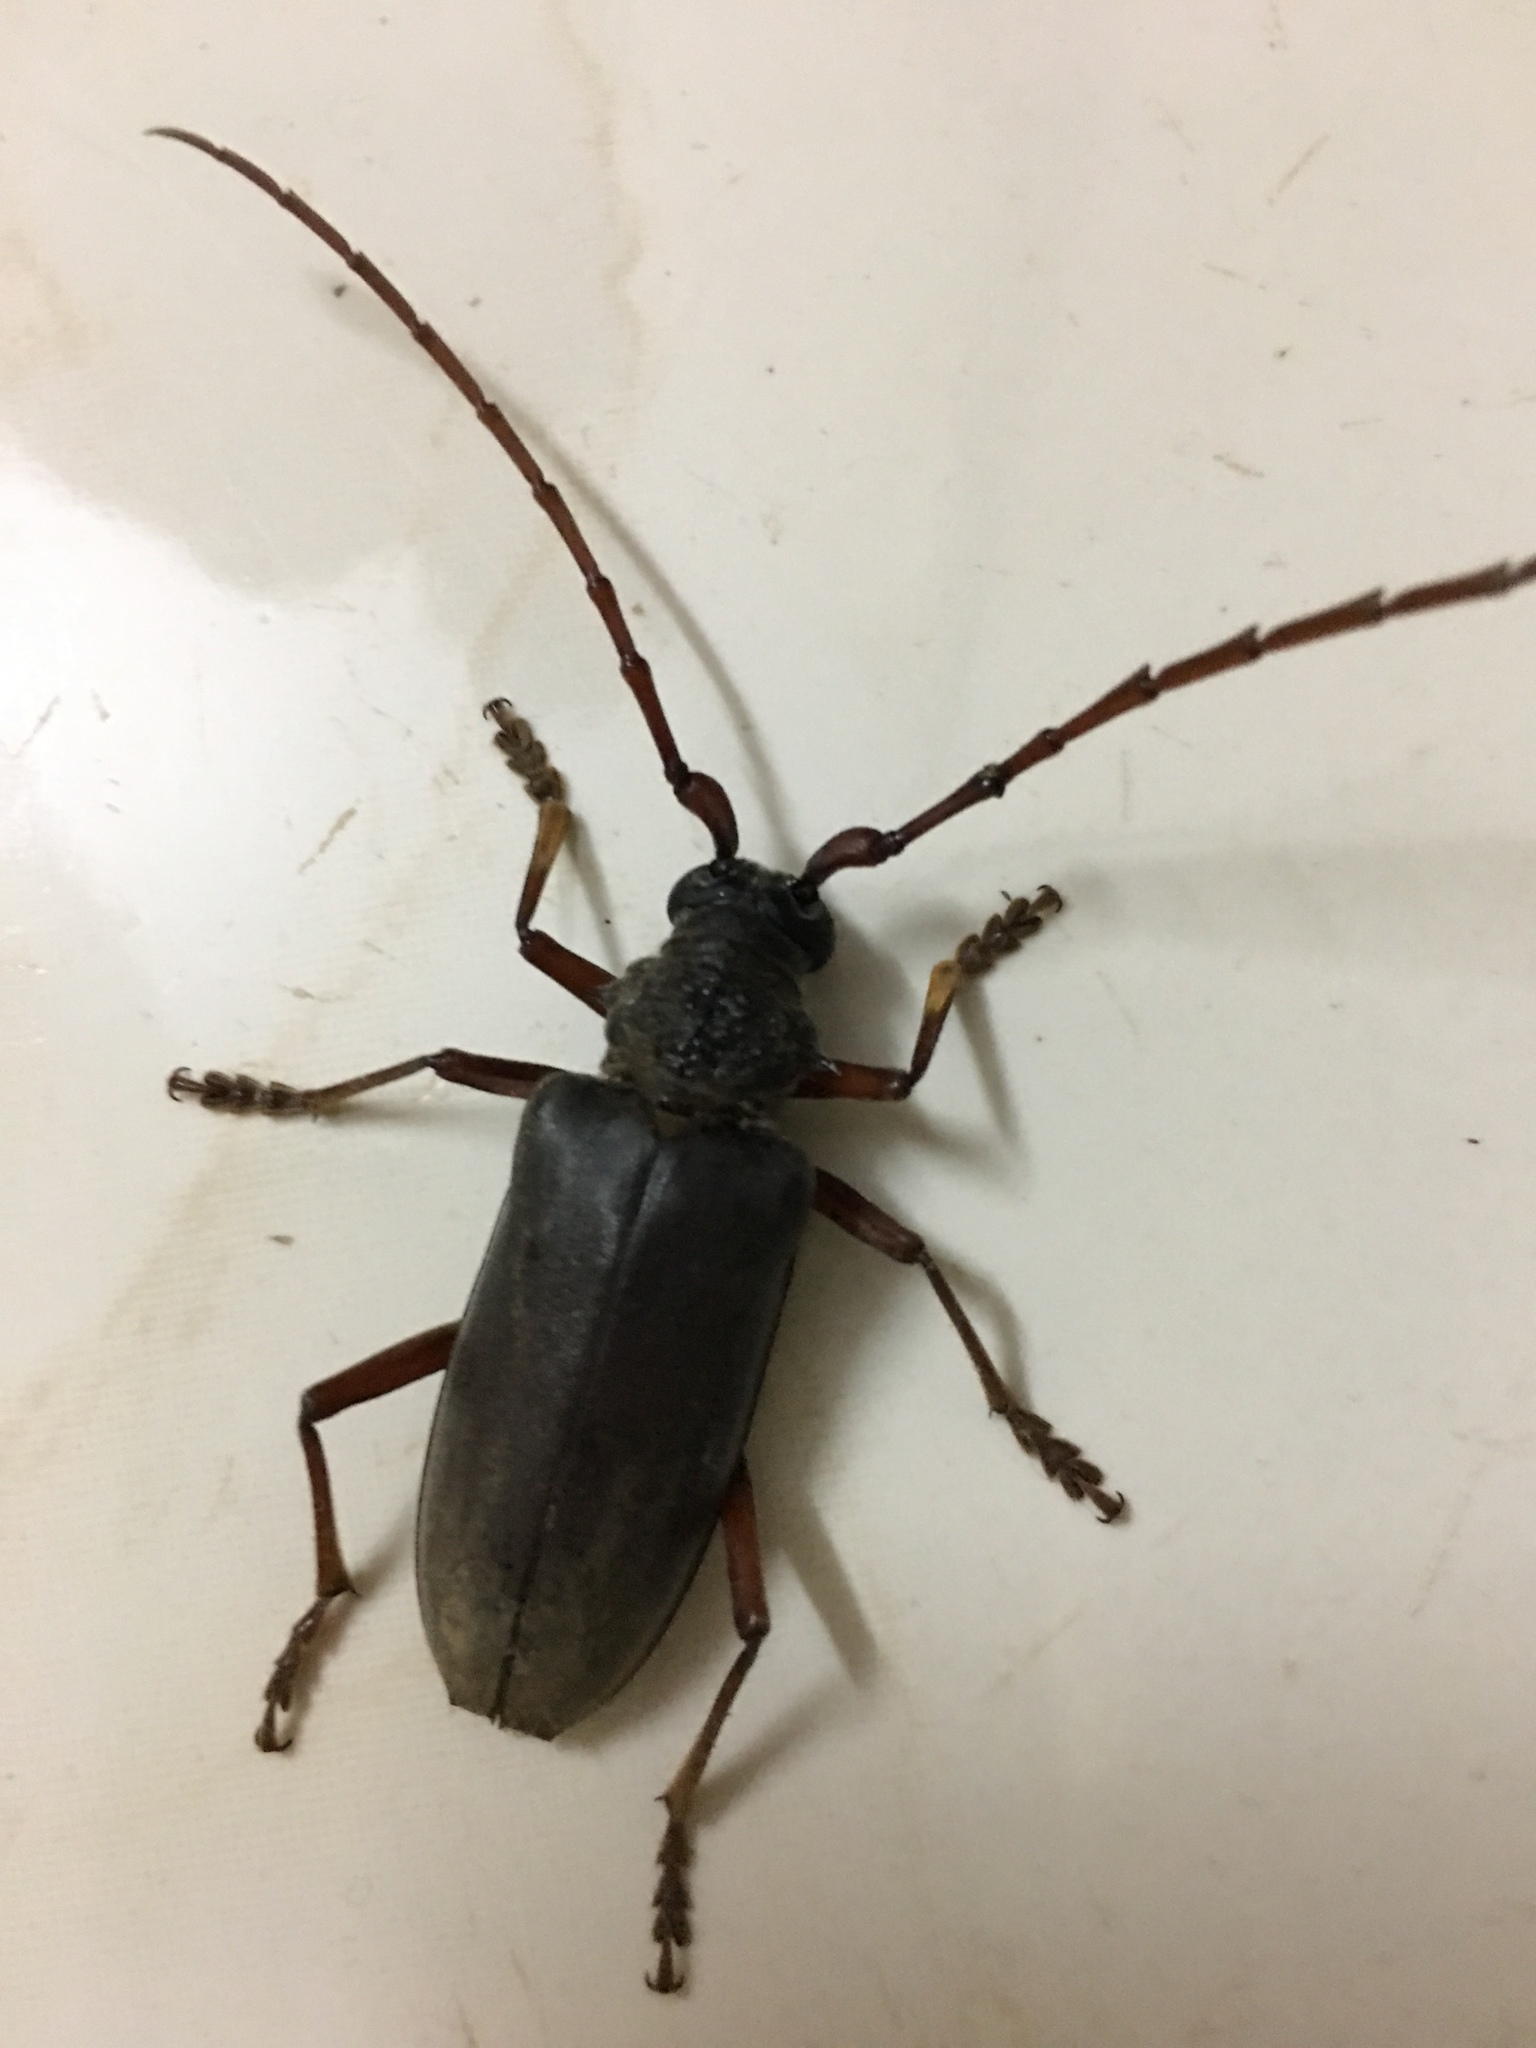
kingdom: Animalia
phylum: Arthropoda
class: Insecta
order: Coleoptera
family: Cerambycidae
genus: Neoplocaederus
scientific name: Neoplocaederus ferrugineus
